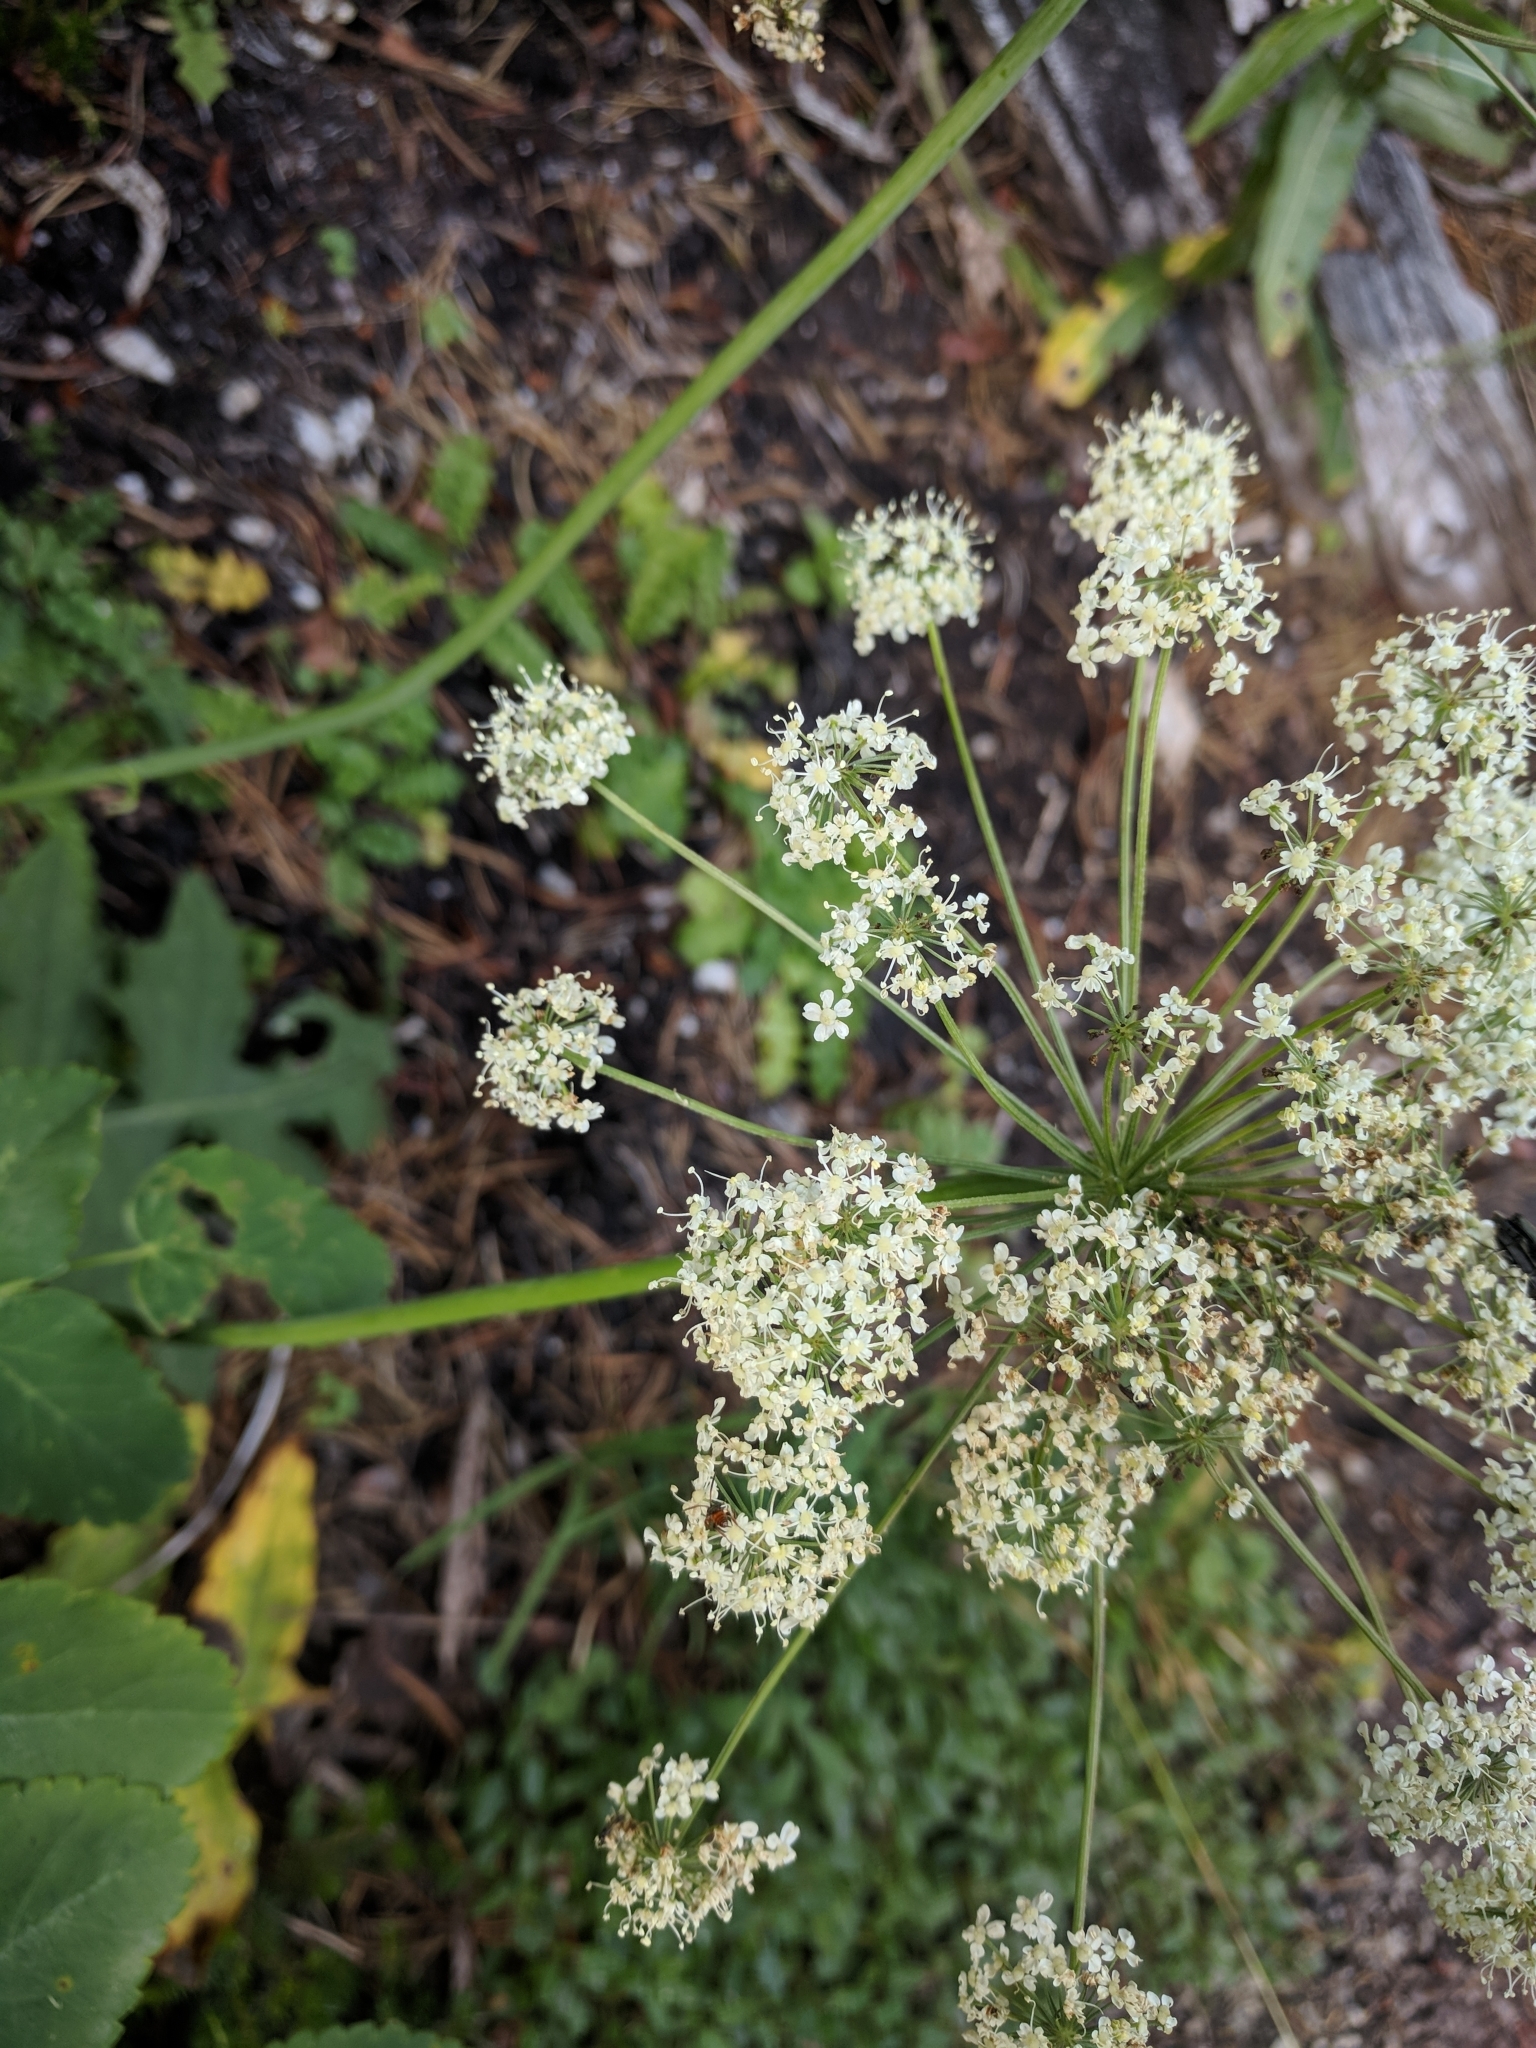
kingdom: Plantae
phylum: Tracheophyta
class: Magnoliopsida
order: Apiales
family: Apiaceae
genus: Laserpitium
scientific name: Laserpitium latifolium
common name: Broadleaf sermountain
